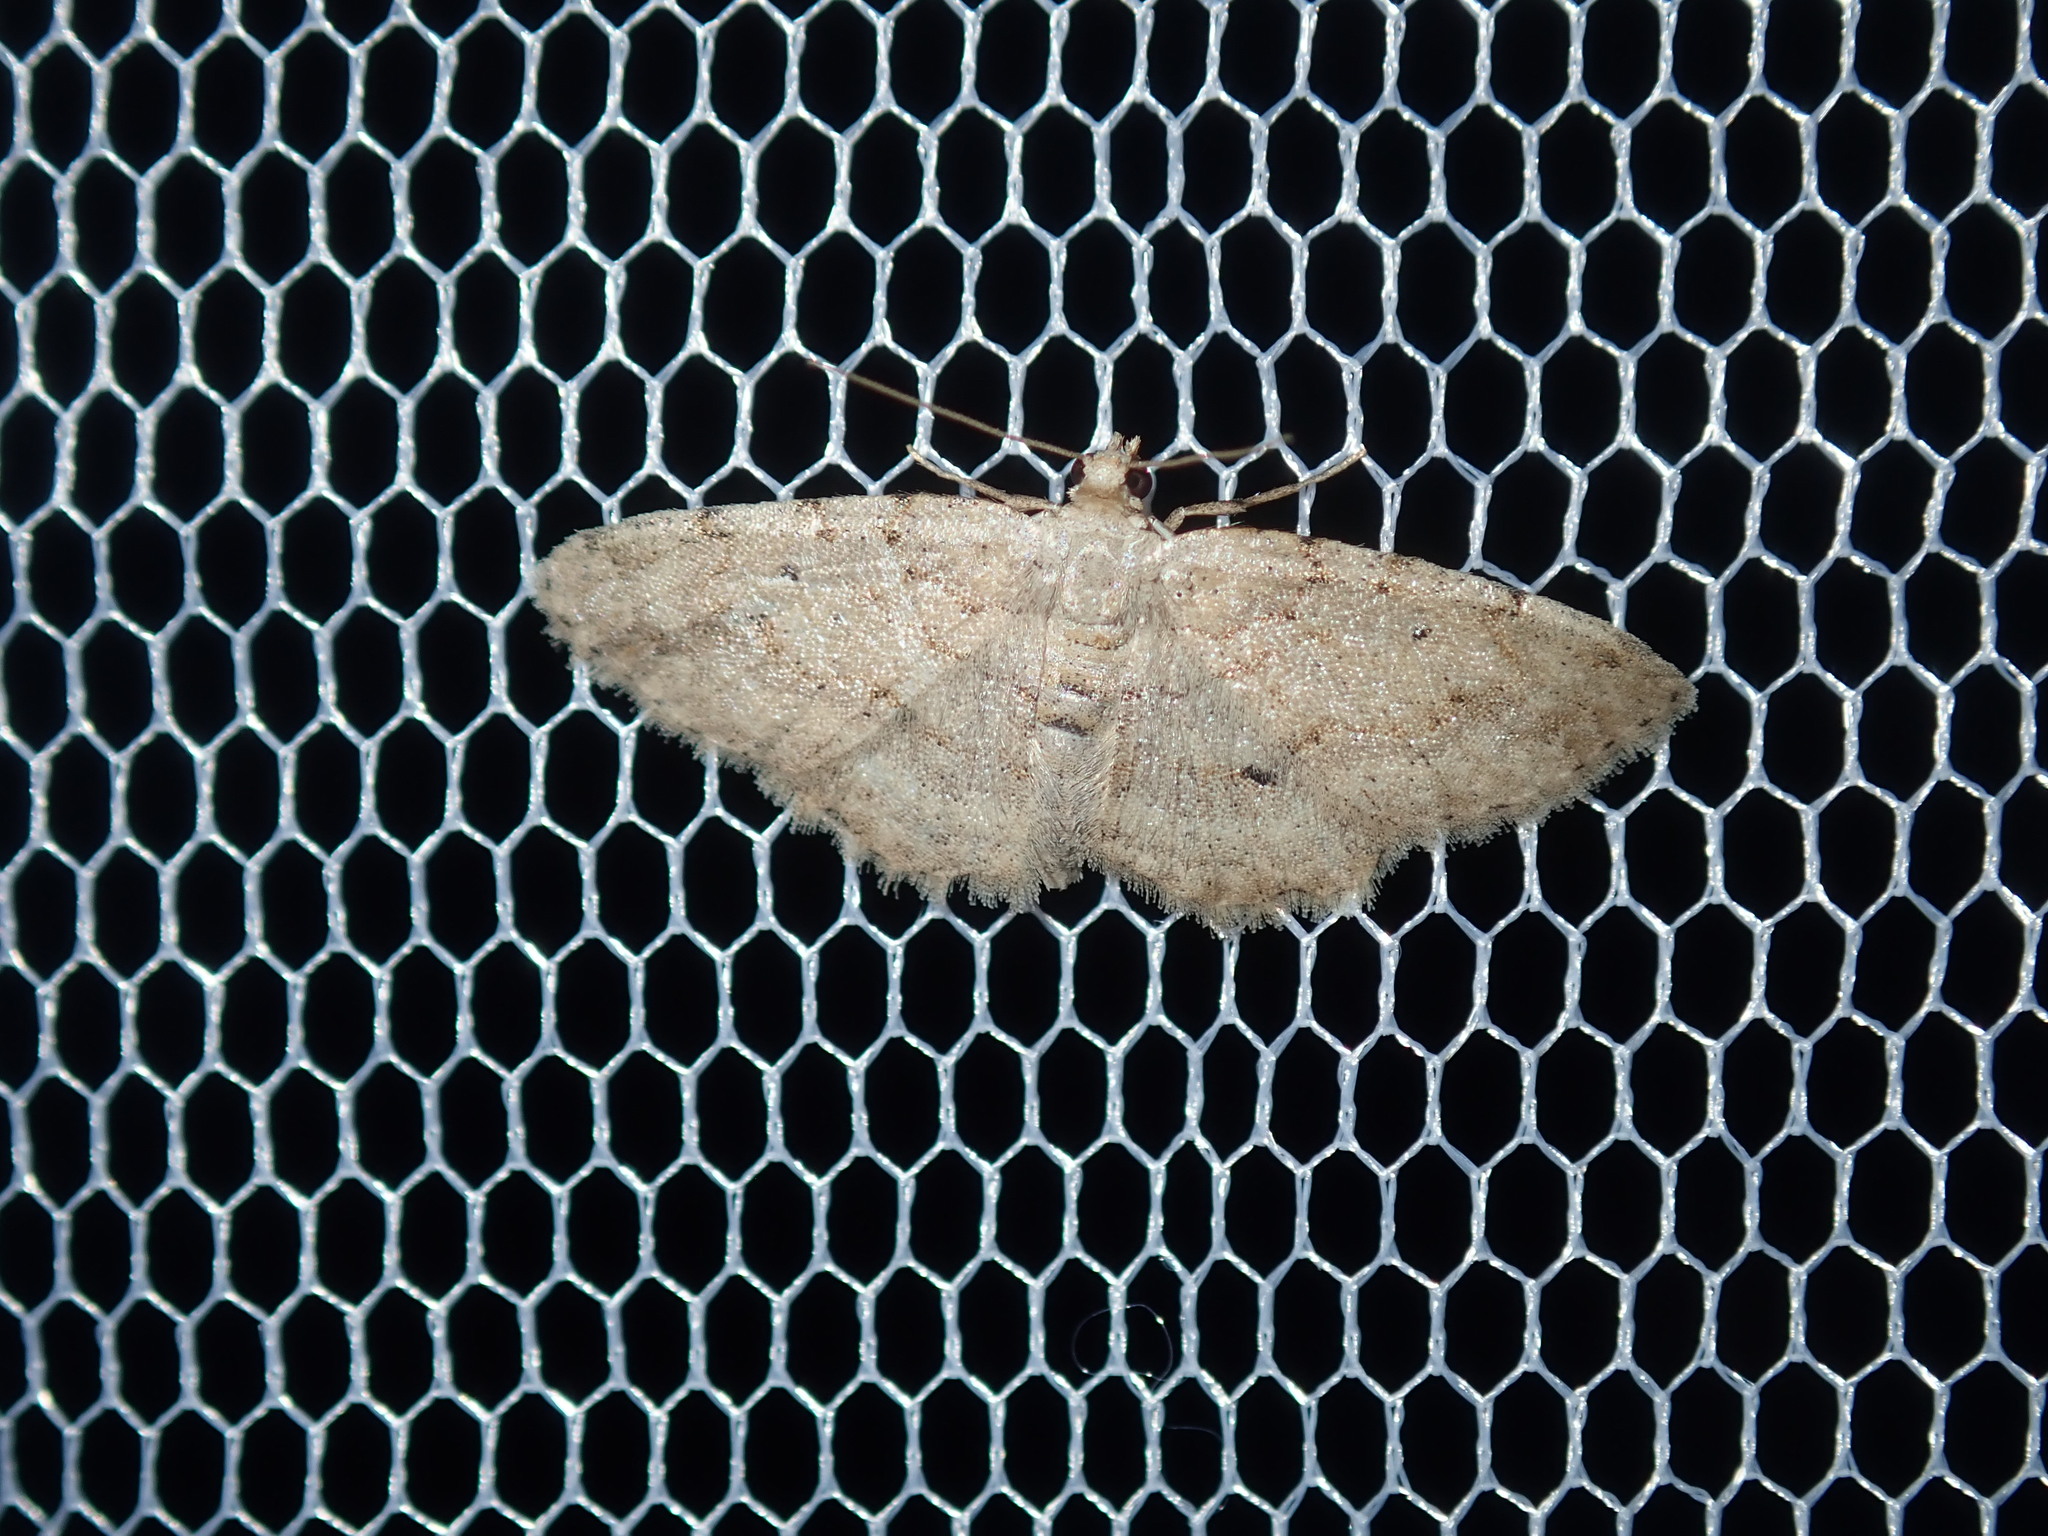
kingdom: Animalia
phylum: Arthropoda
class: Insecta
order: Lepidoptera
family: Geometridae
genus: Ectropis
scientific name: Ectropis argalea
